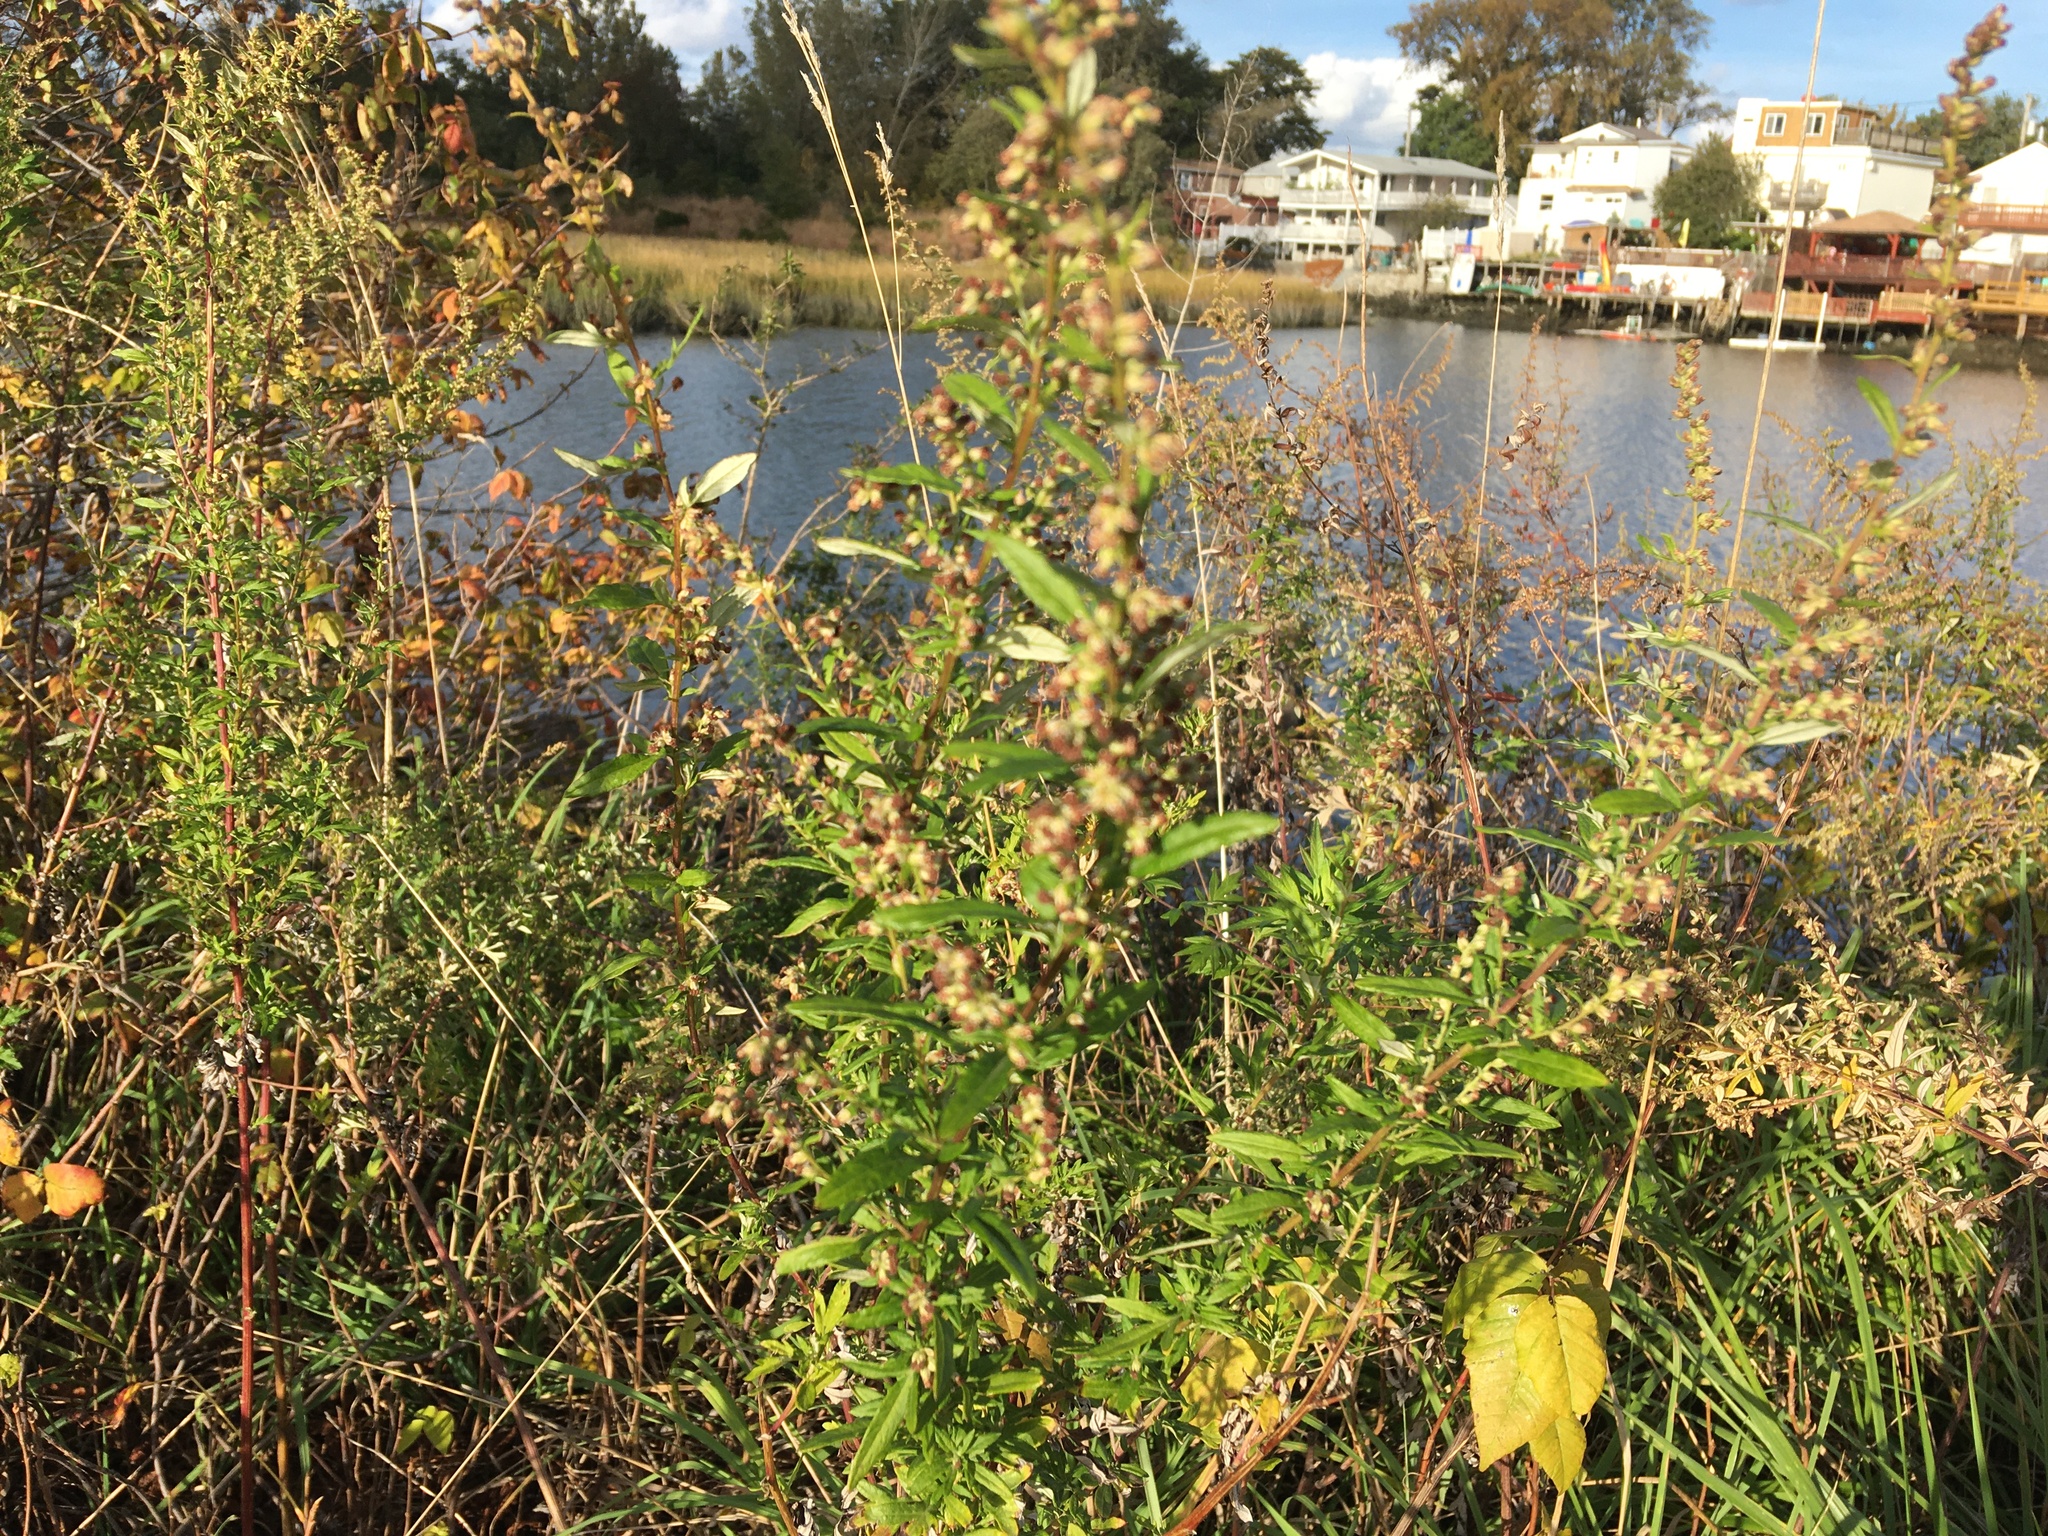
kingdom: Plantae
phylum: Tracheophyta
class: Magnoliopsida
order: Asterales
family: Asteraceae
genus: Artemisia
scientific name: Artemisia vulgaris
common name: Mugwort
